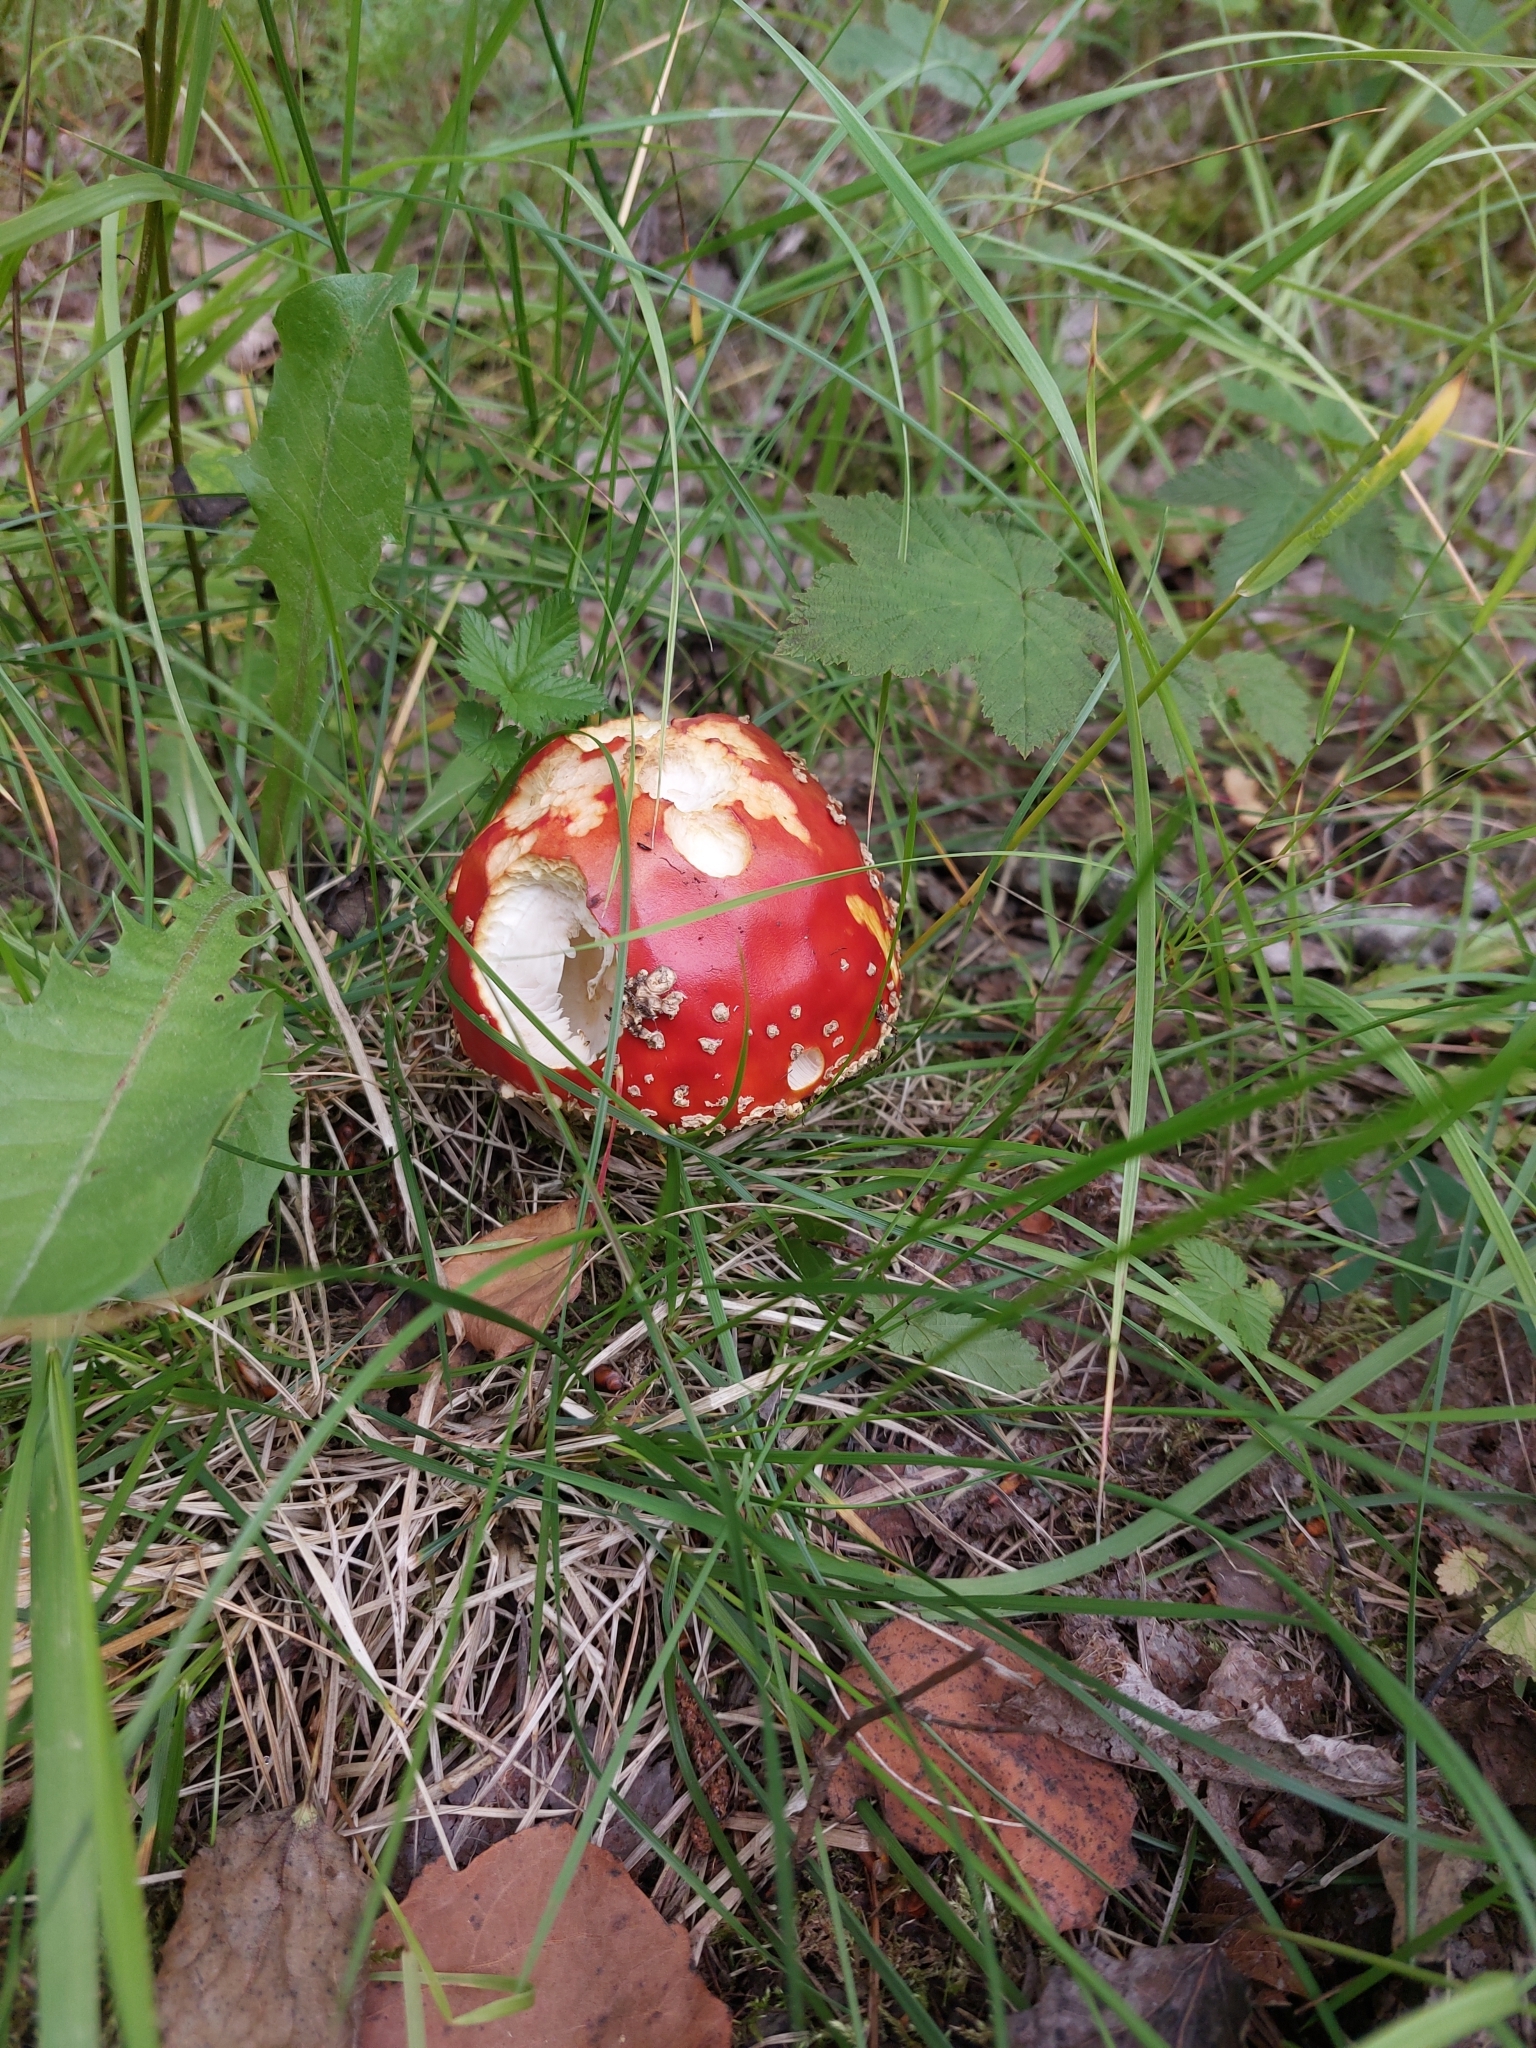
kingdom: Fungi
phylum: Basidiomycota
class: Agaricomycetes
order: Agaricales
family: Amanitaceae
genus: Amanita
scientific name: Amanita muscaria
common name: Fly agaric
